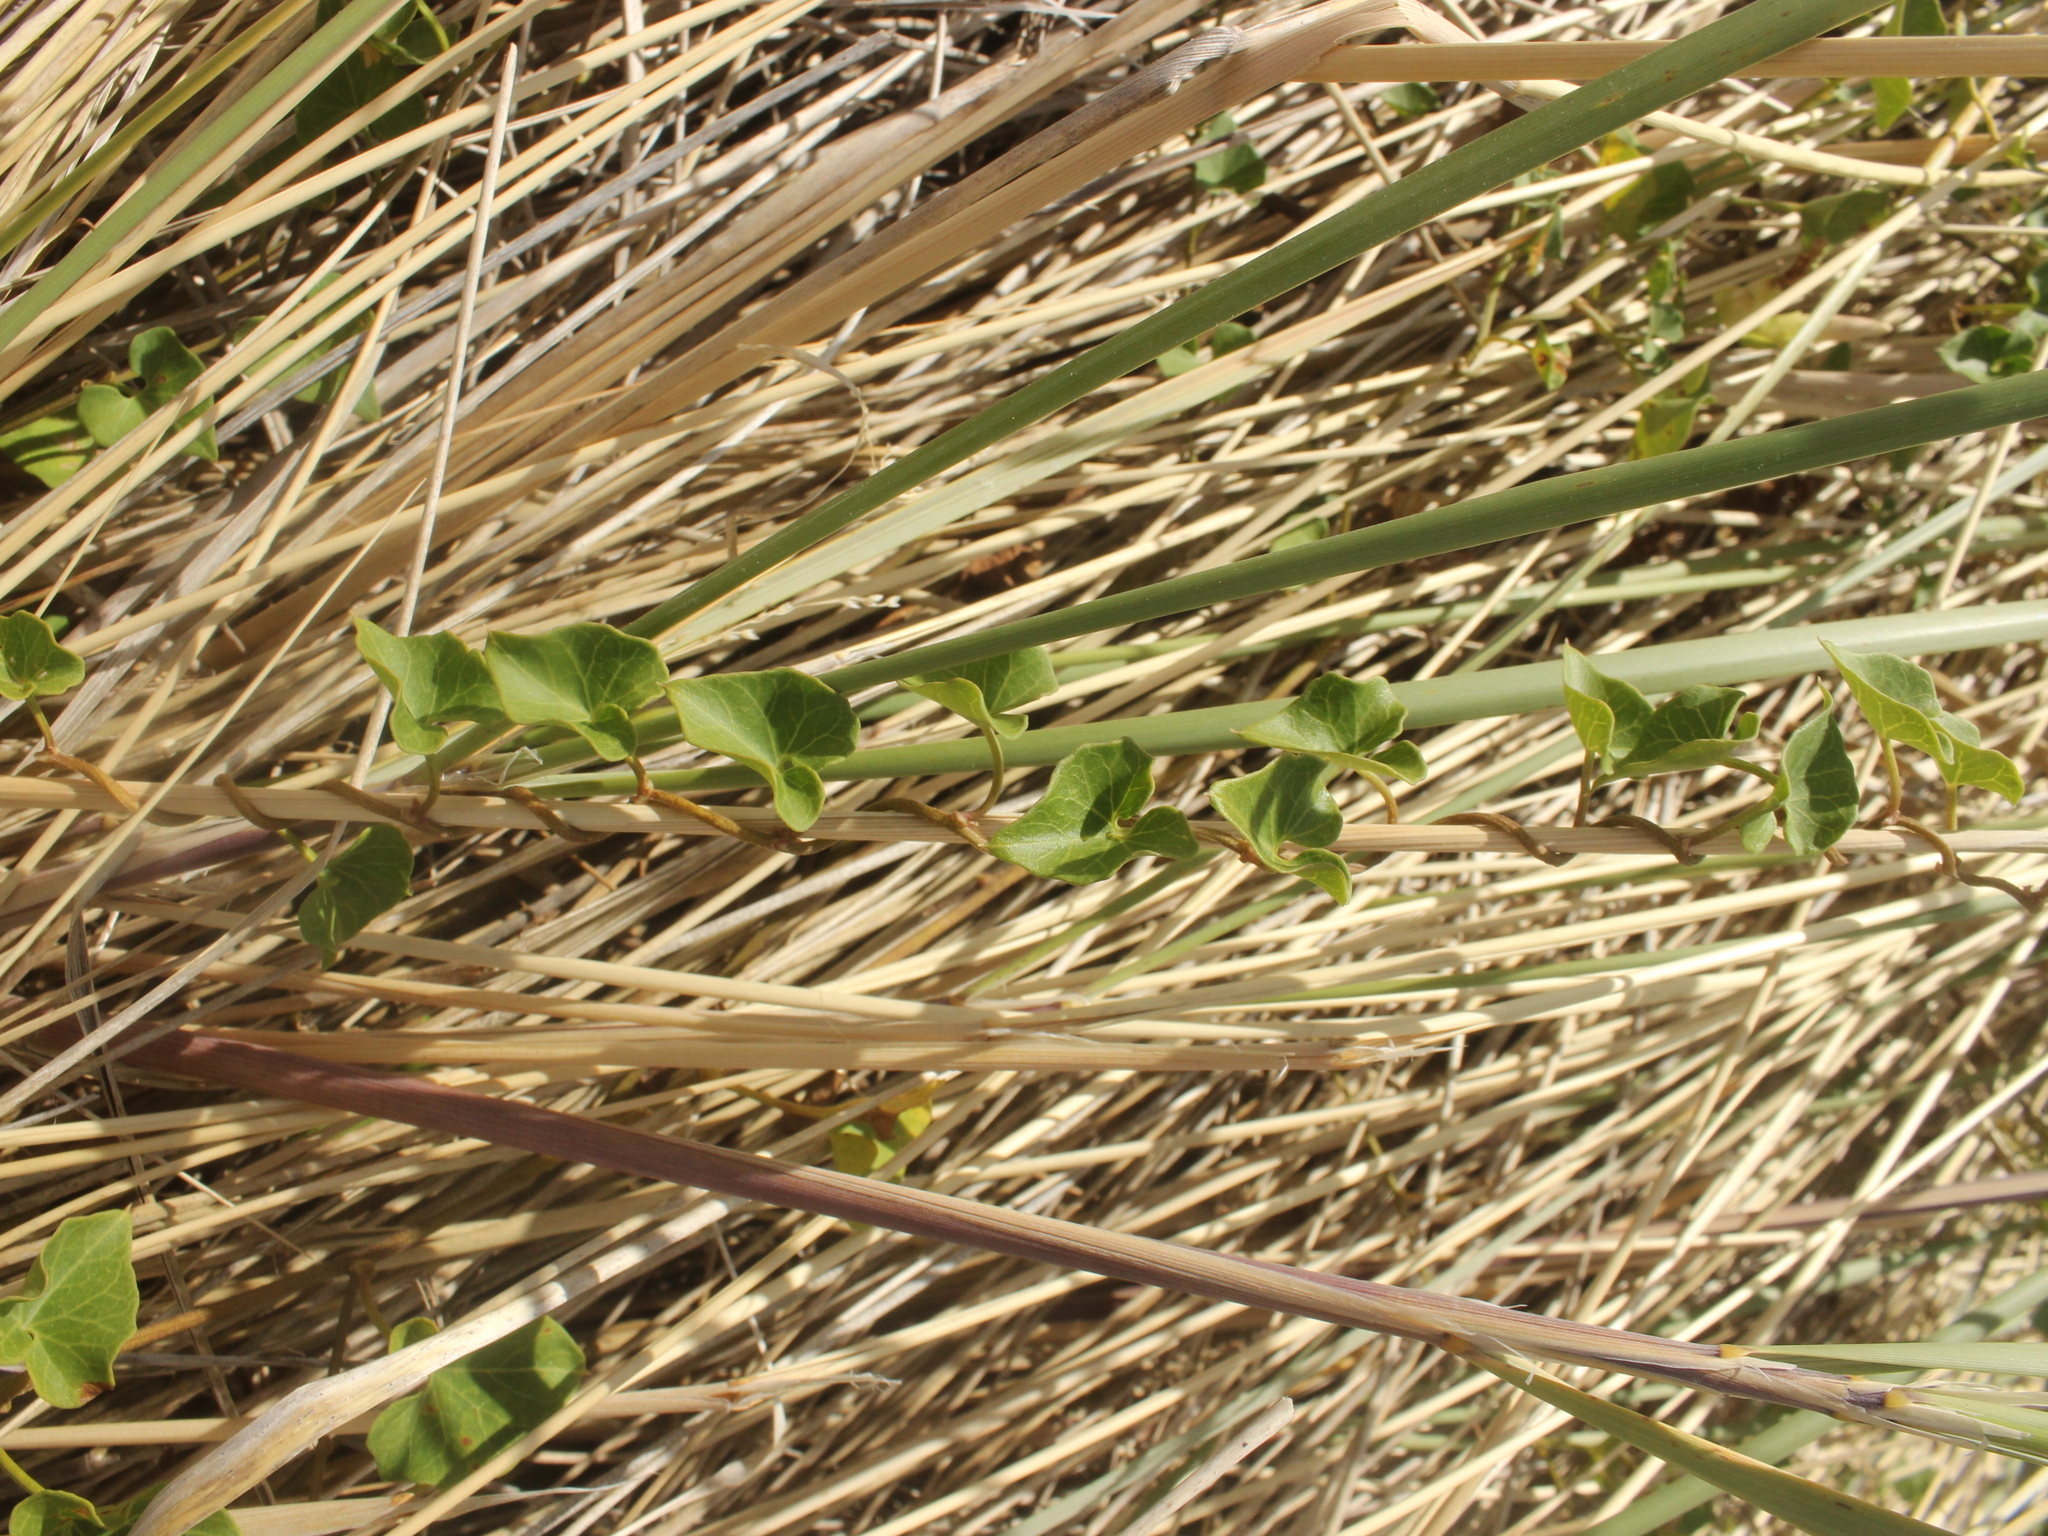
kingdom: Plantae
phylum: Tracheophyta
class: Magnoliopsida
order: Solanales
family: Convolvulaceae
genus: Calystegia
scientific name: Calystegia
